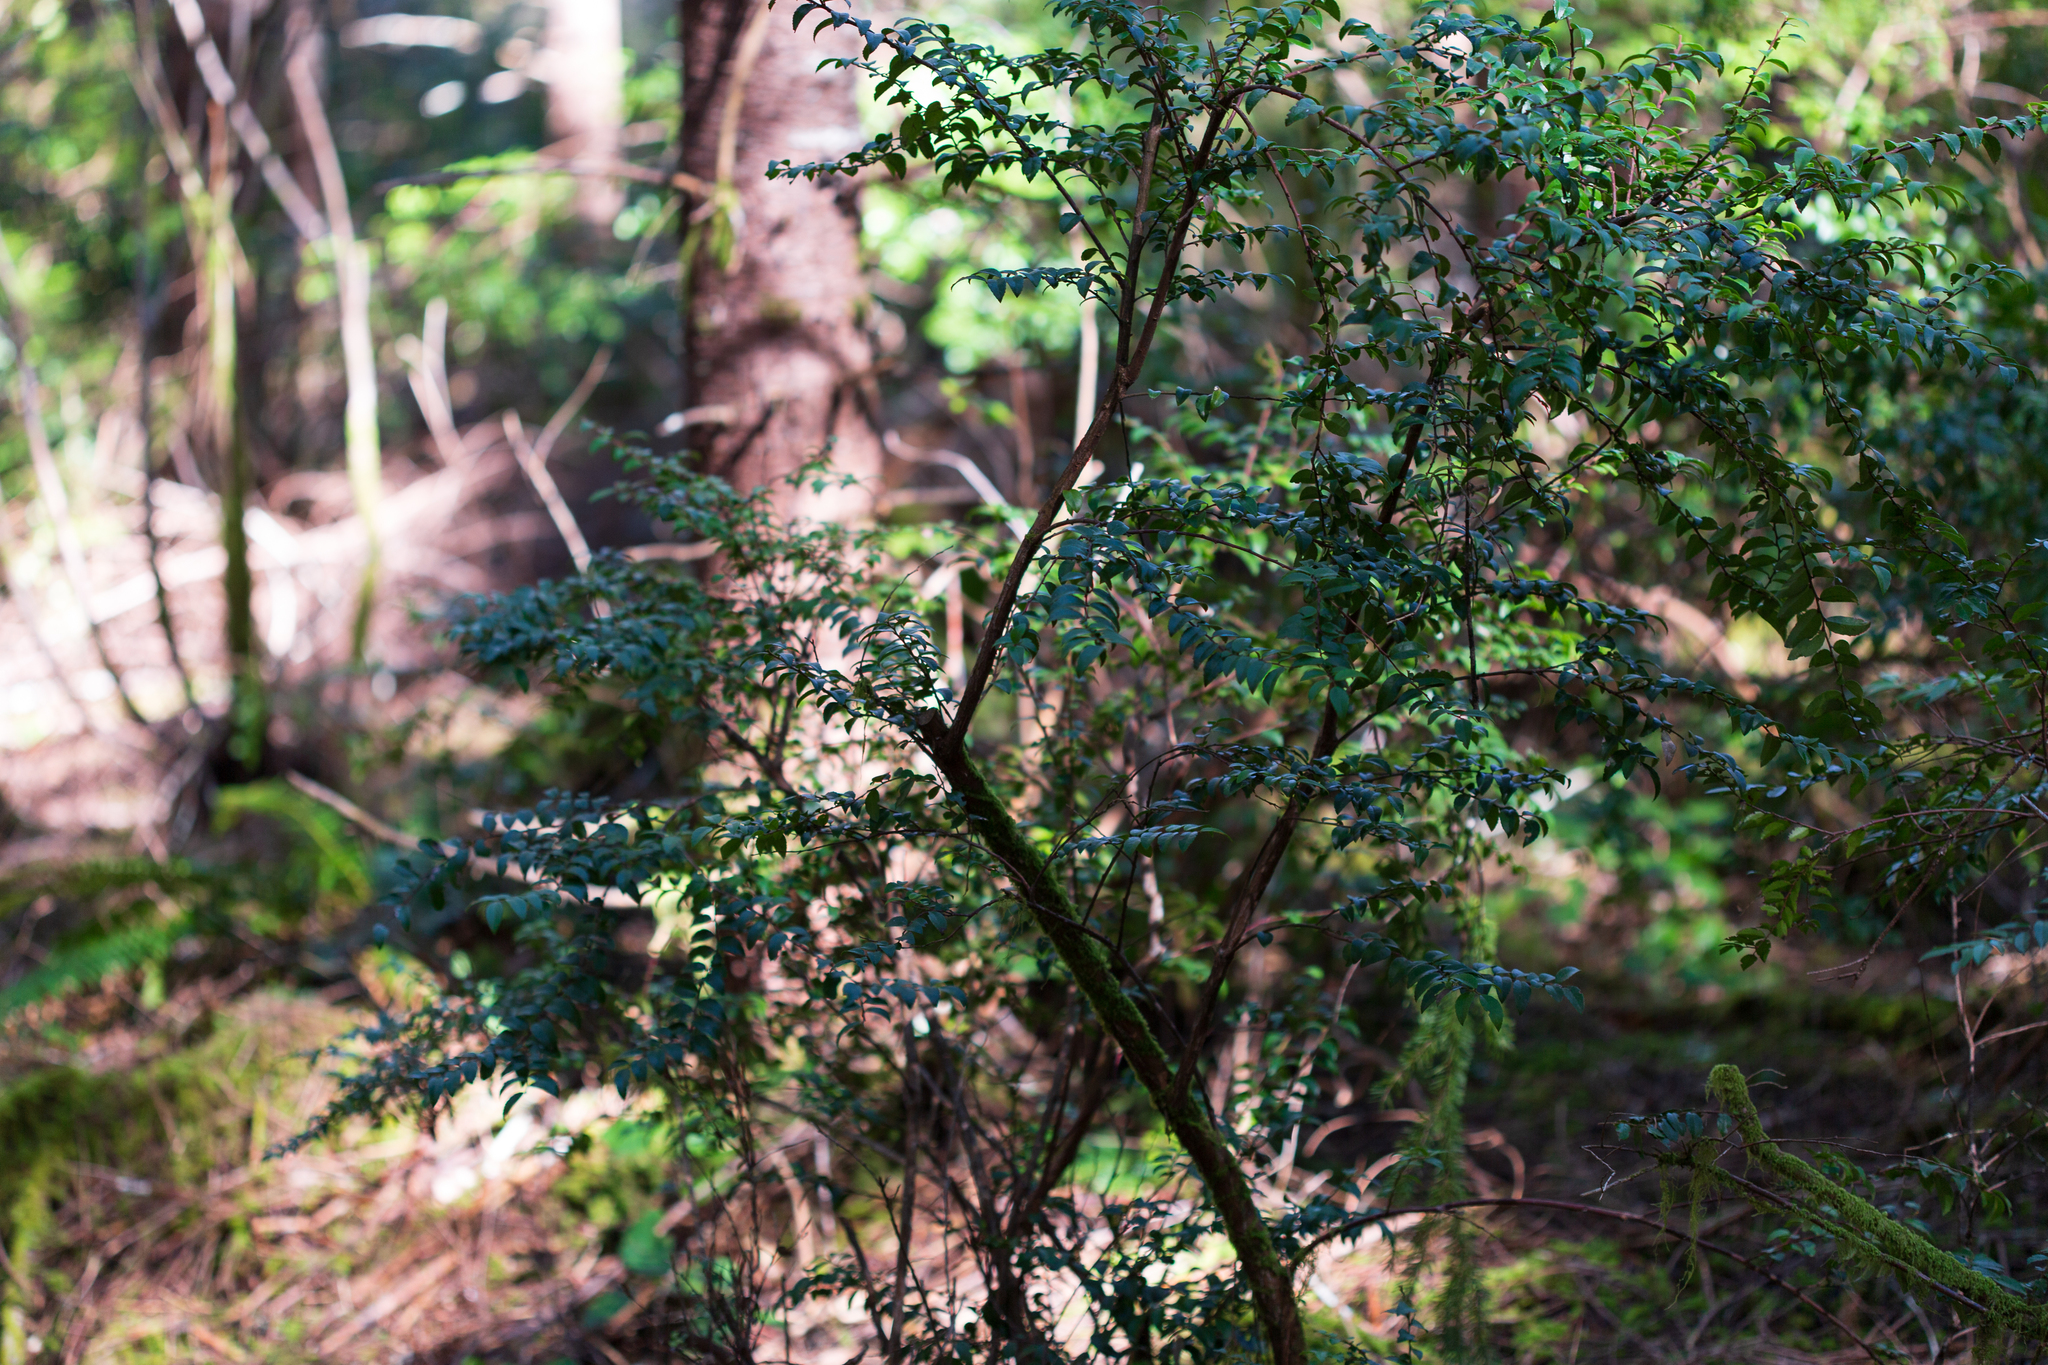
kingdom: Plantae
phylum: Tracheophyta
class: Magnoliopsida
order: Ericales
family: Ericaceae
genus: Vaccinium
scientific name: Vaccinium ovatum
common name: California-huckleberry
